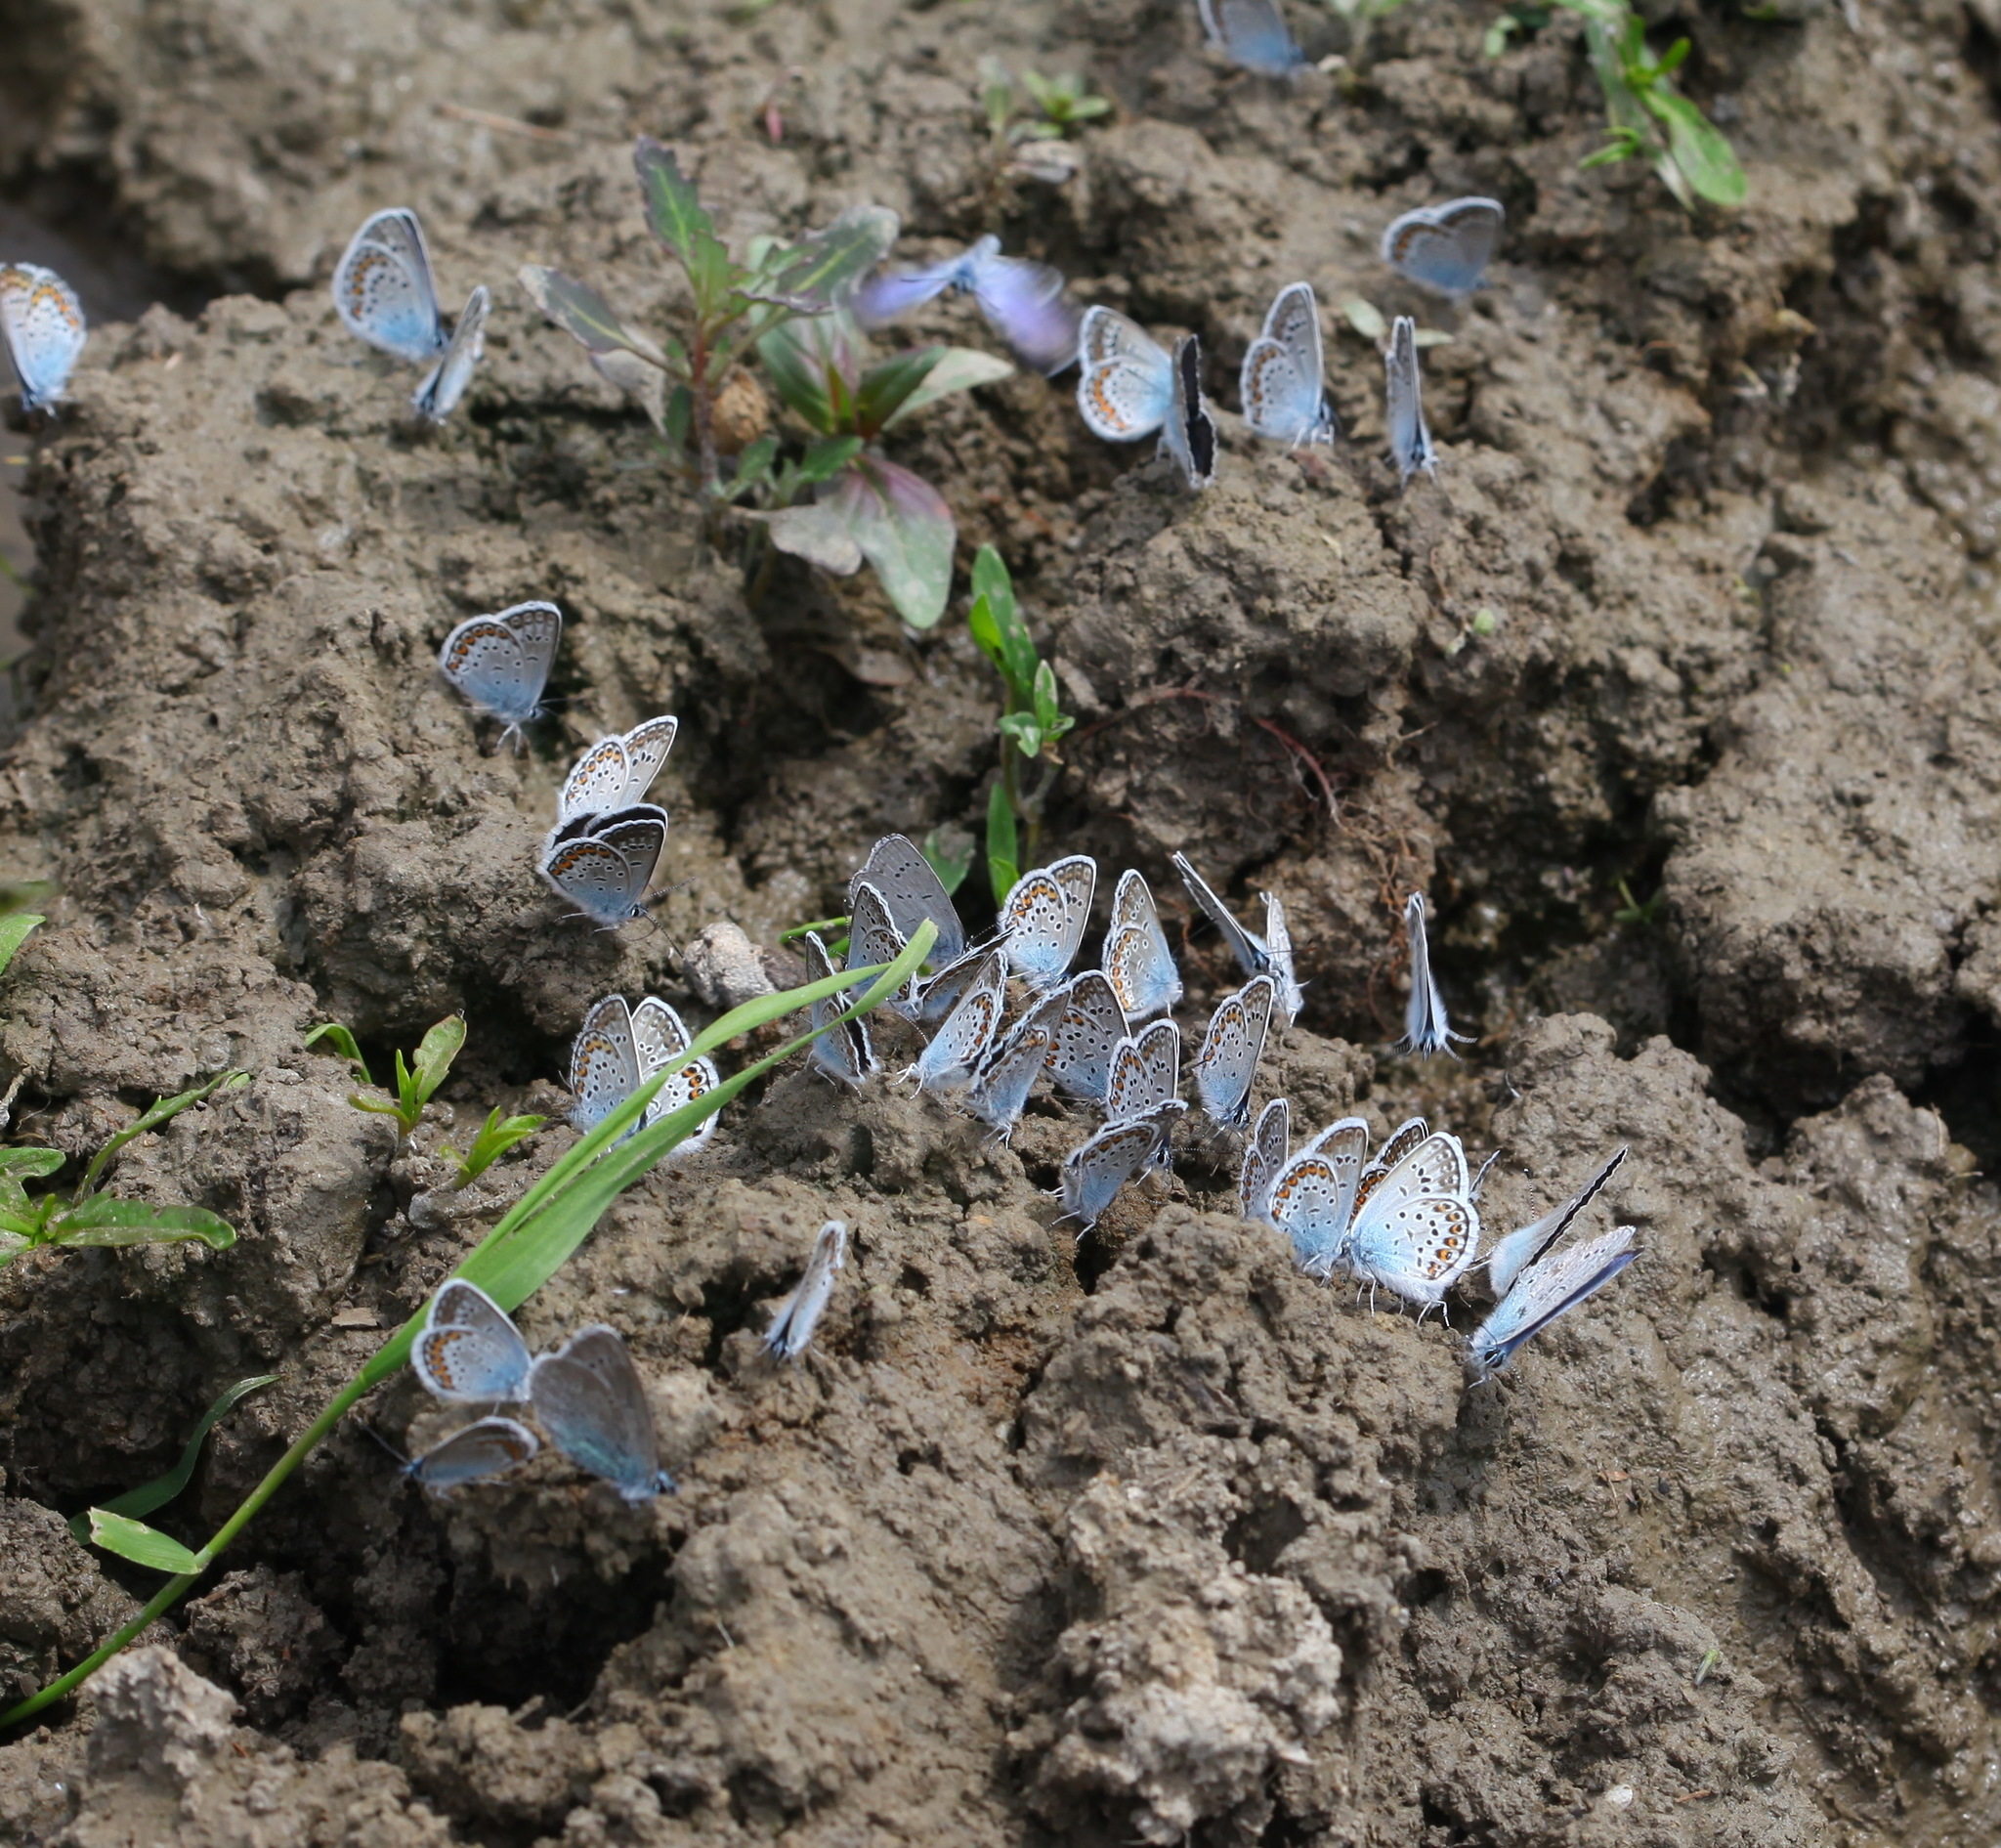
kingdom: Animalia
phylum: Arthropoda
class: Insecta
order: Lepidoptera
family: Lycaenidae
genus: Plebejus
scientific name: Plebejus argus
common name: Silver-studded blue
